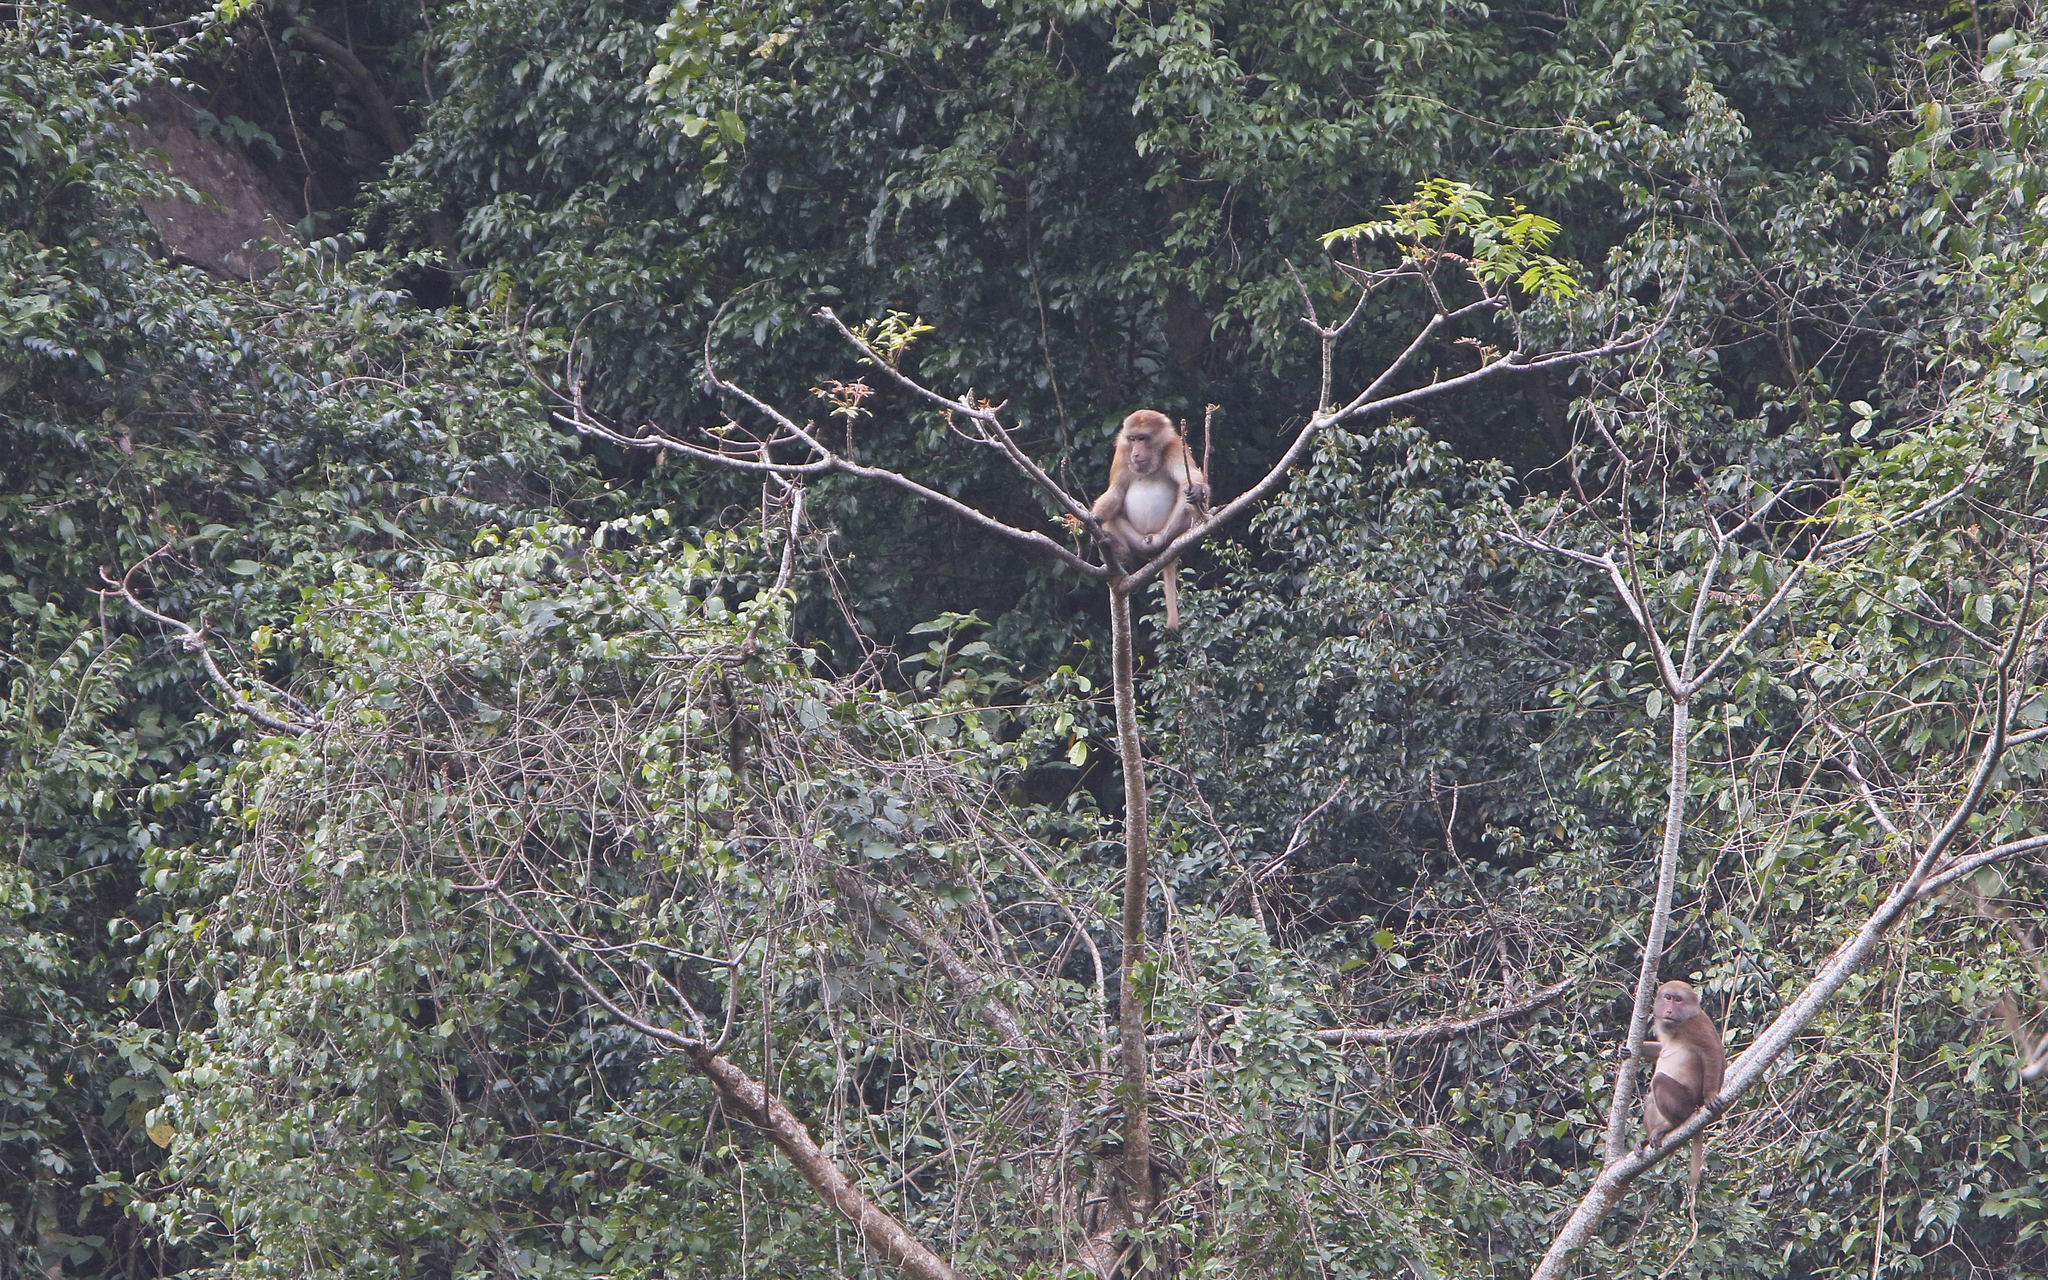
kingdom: Animalia
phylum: Chordata
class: Mammalia
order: Primates
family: Cercopithecidae
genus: Macaca
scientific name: Macaca assamensis
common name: Assam macaque
